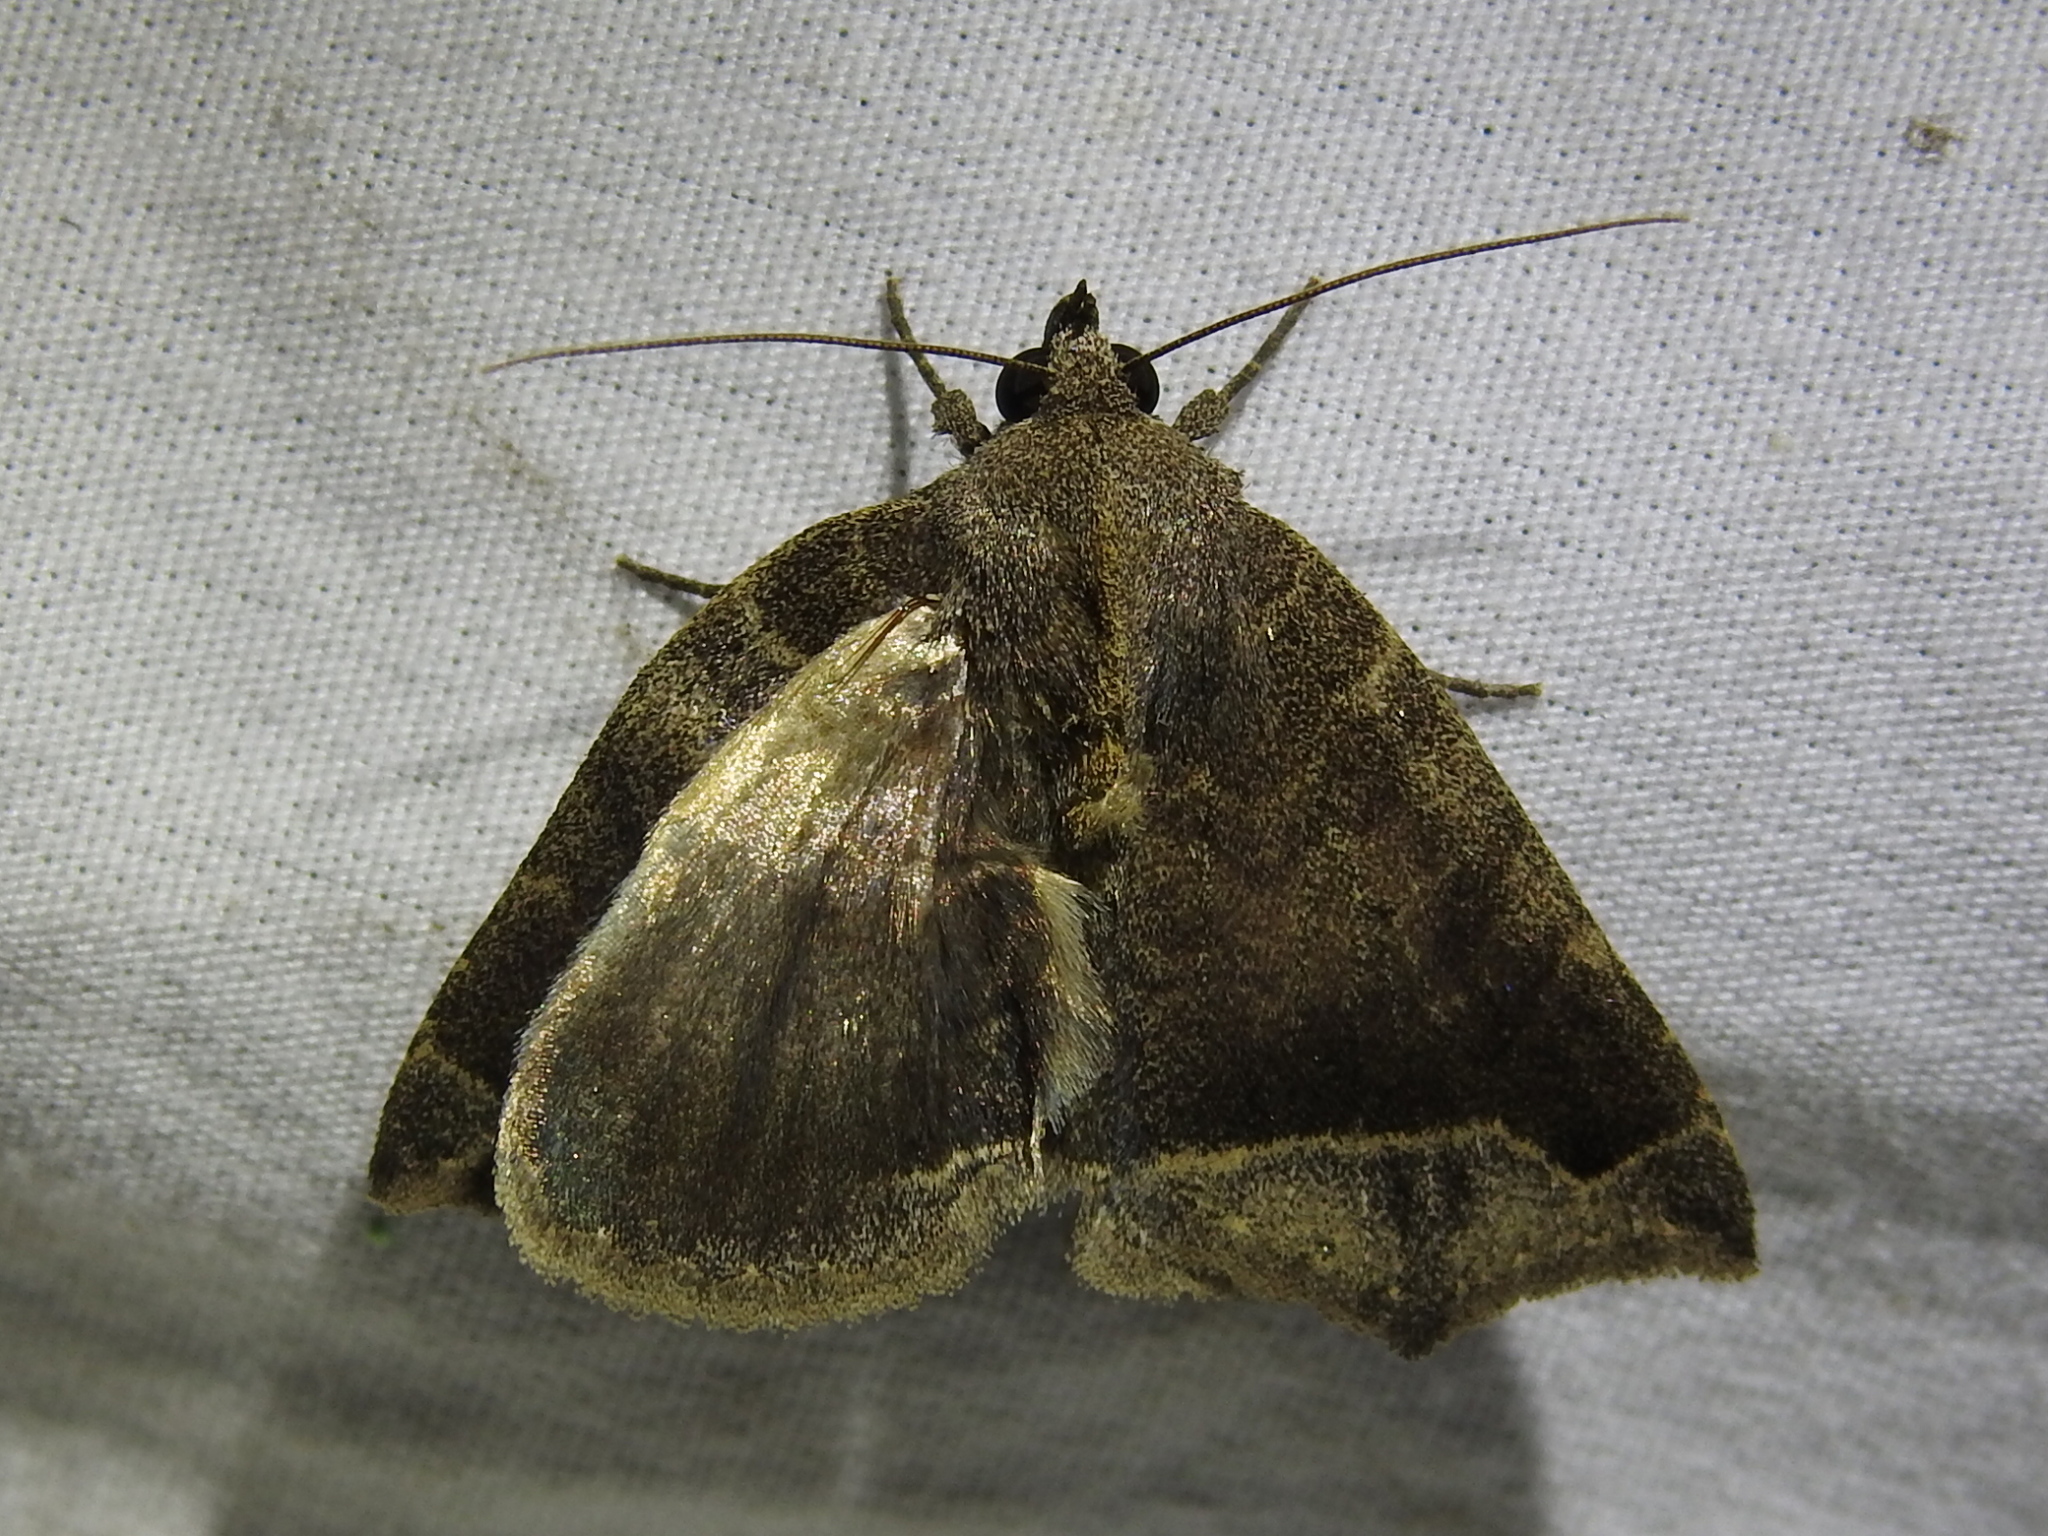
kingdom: Animalia
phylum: Arthropoda
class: Insecta
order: Lepidoptera
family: Erebidae
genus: Bendisodes
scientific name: Bendisodes aeolia
